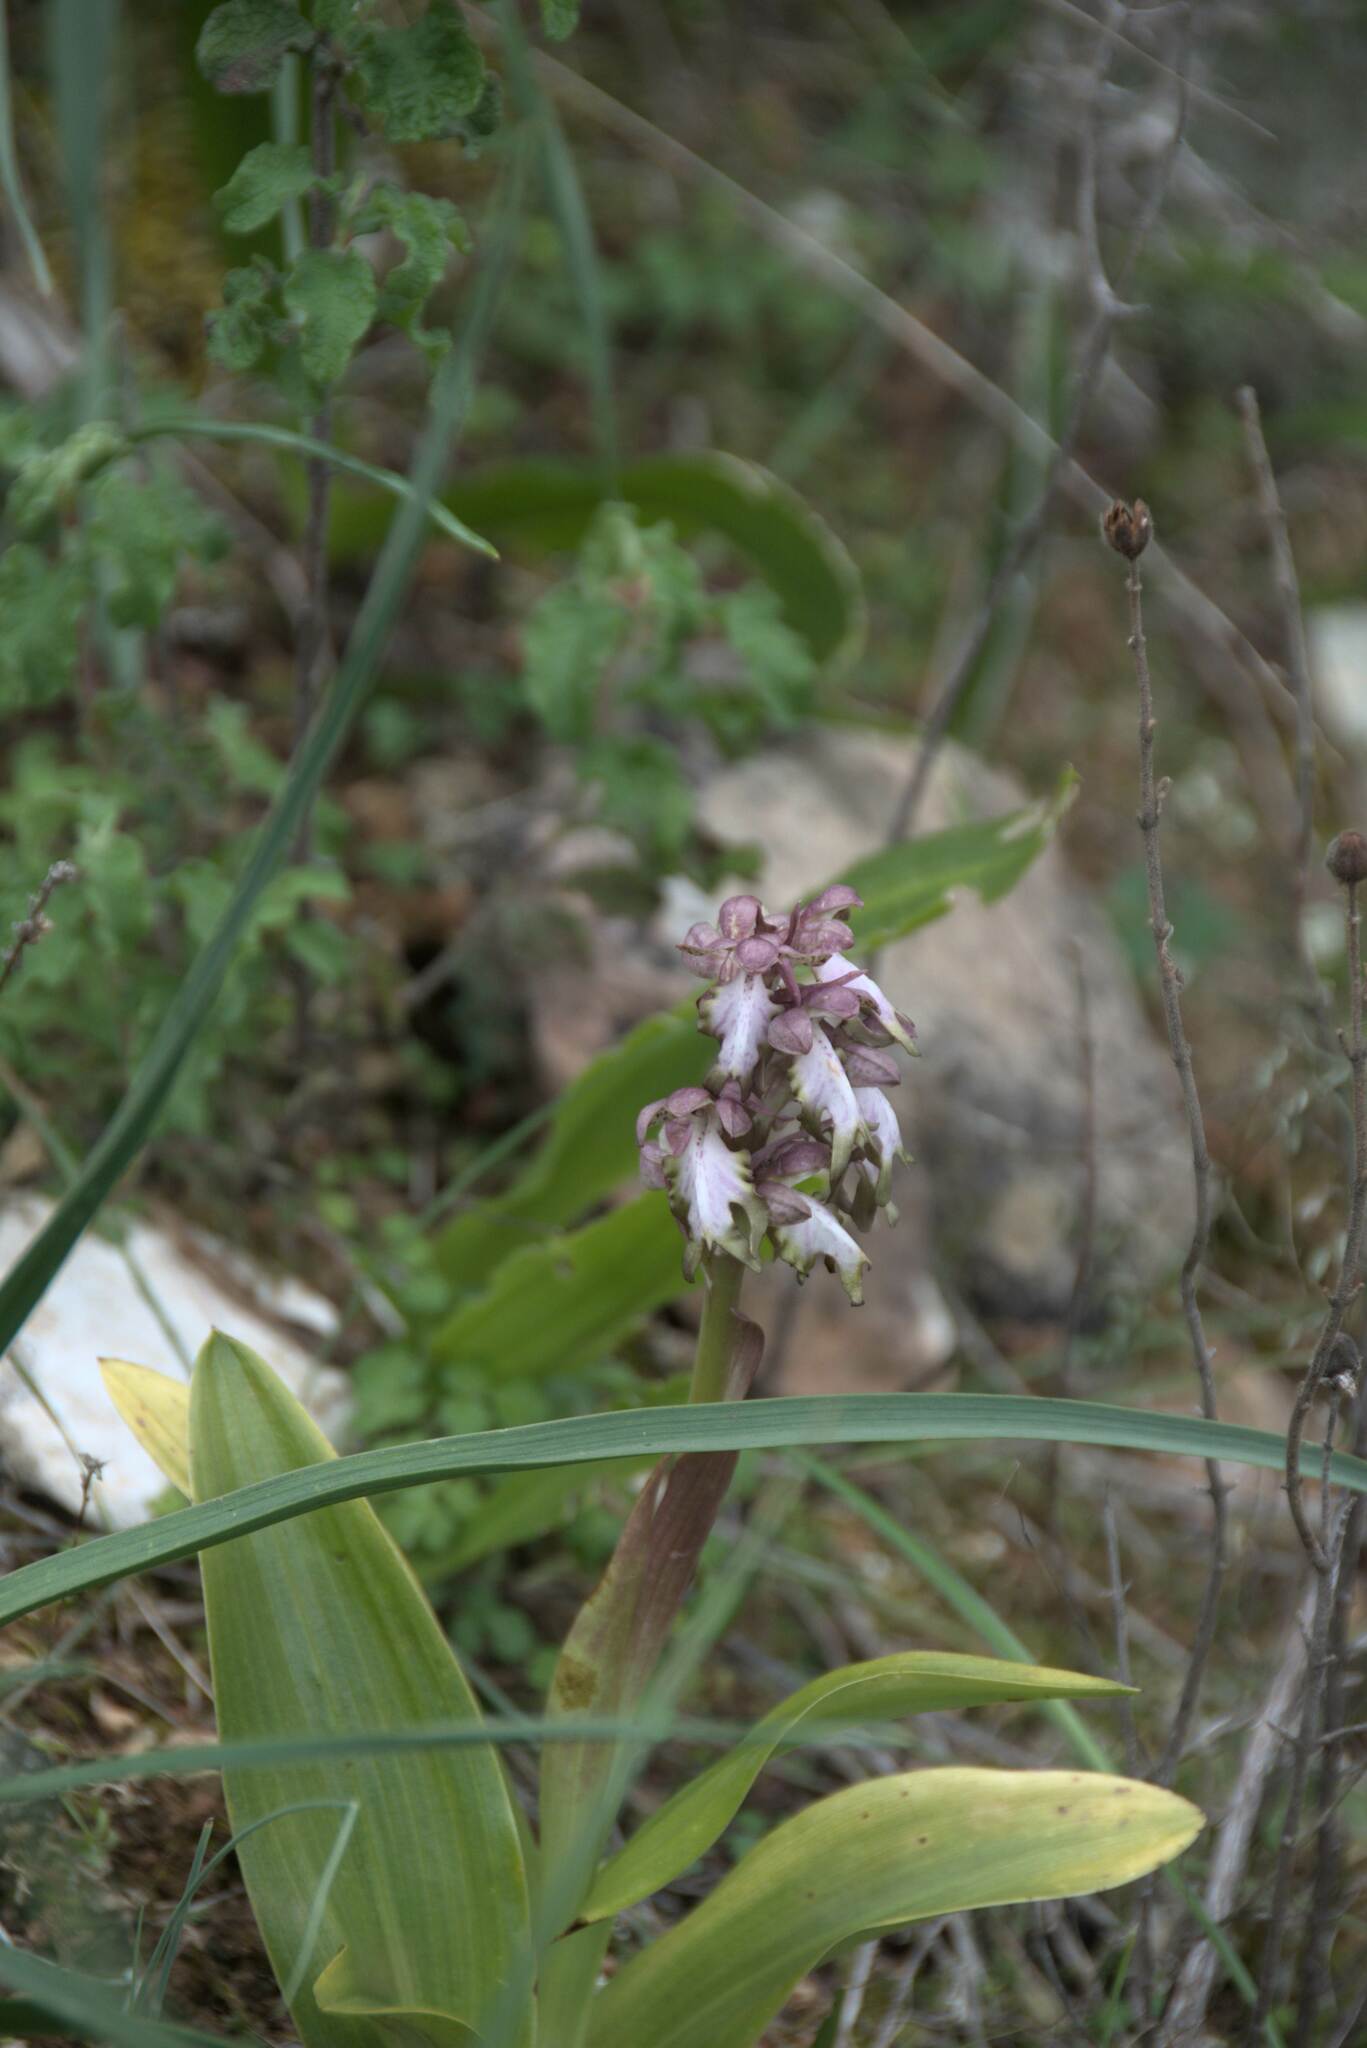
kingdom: Plantae
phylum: Tracheophyta
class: Liliopsida
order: Asparagales
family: Orchidaceae
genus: Himantoglossum
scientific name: Himantoglossum robertianum
